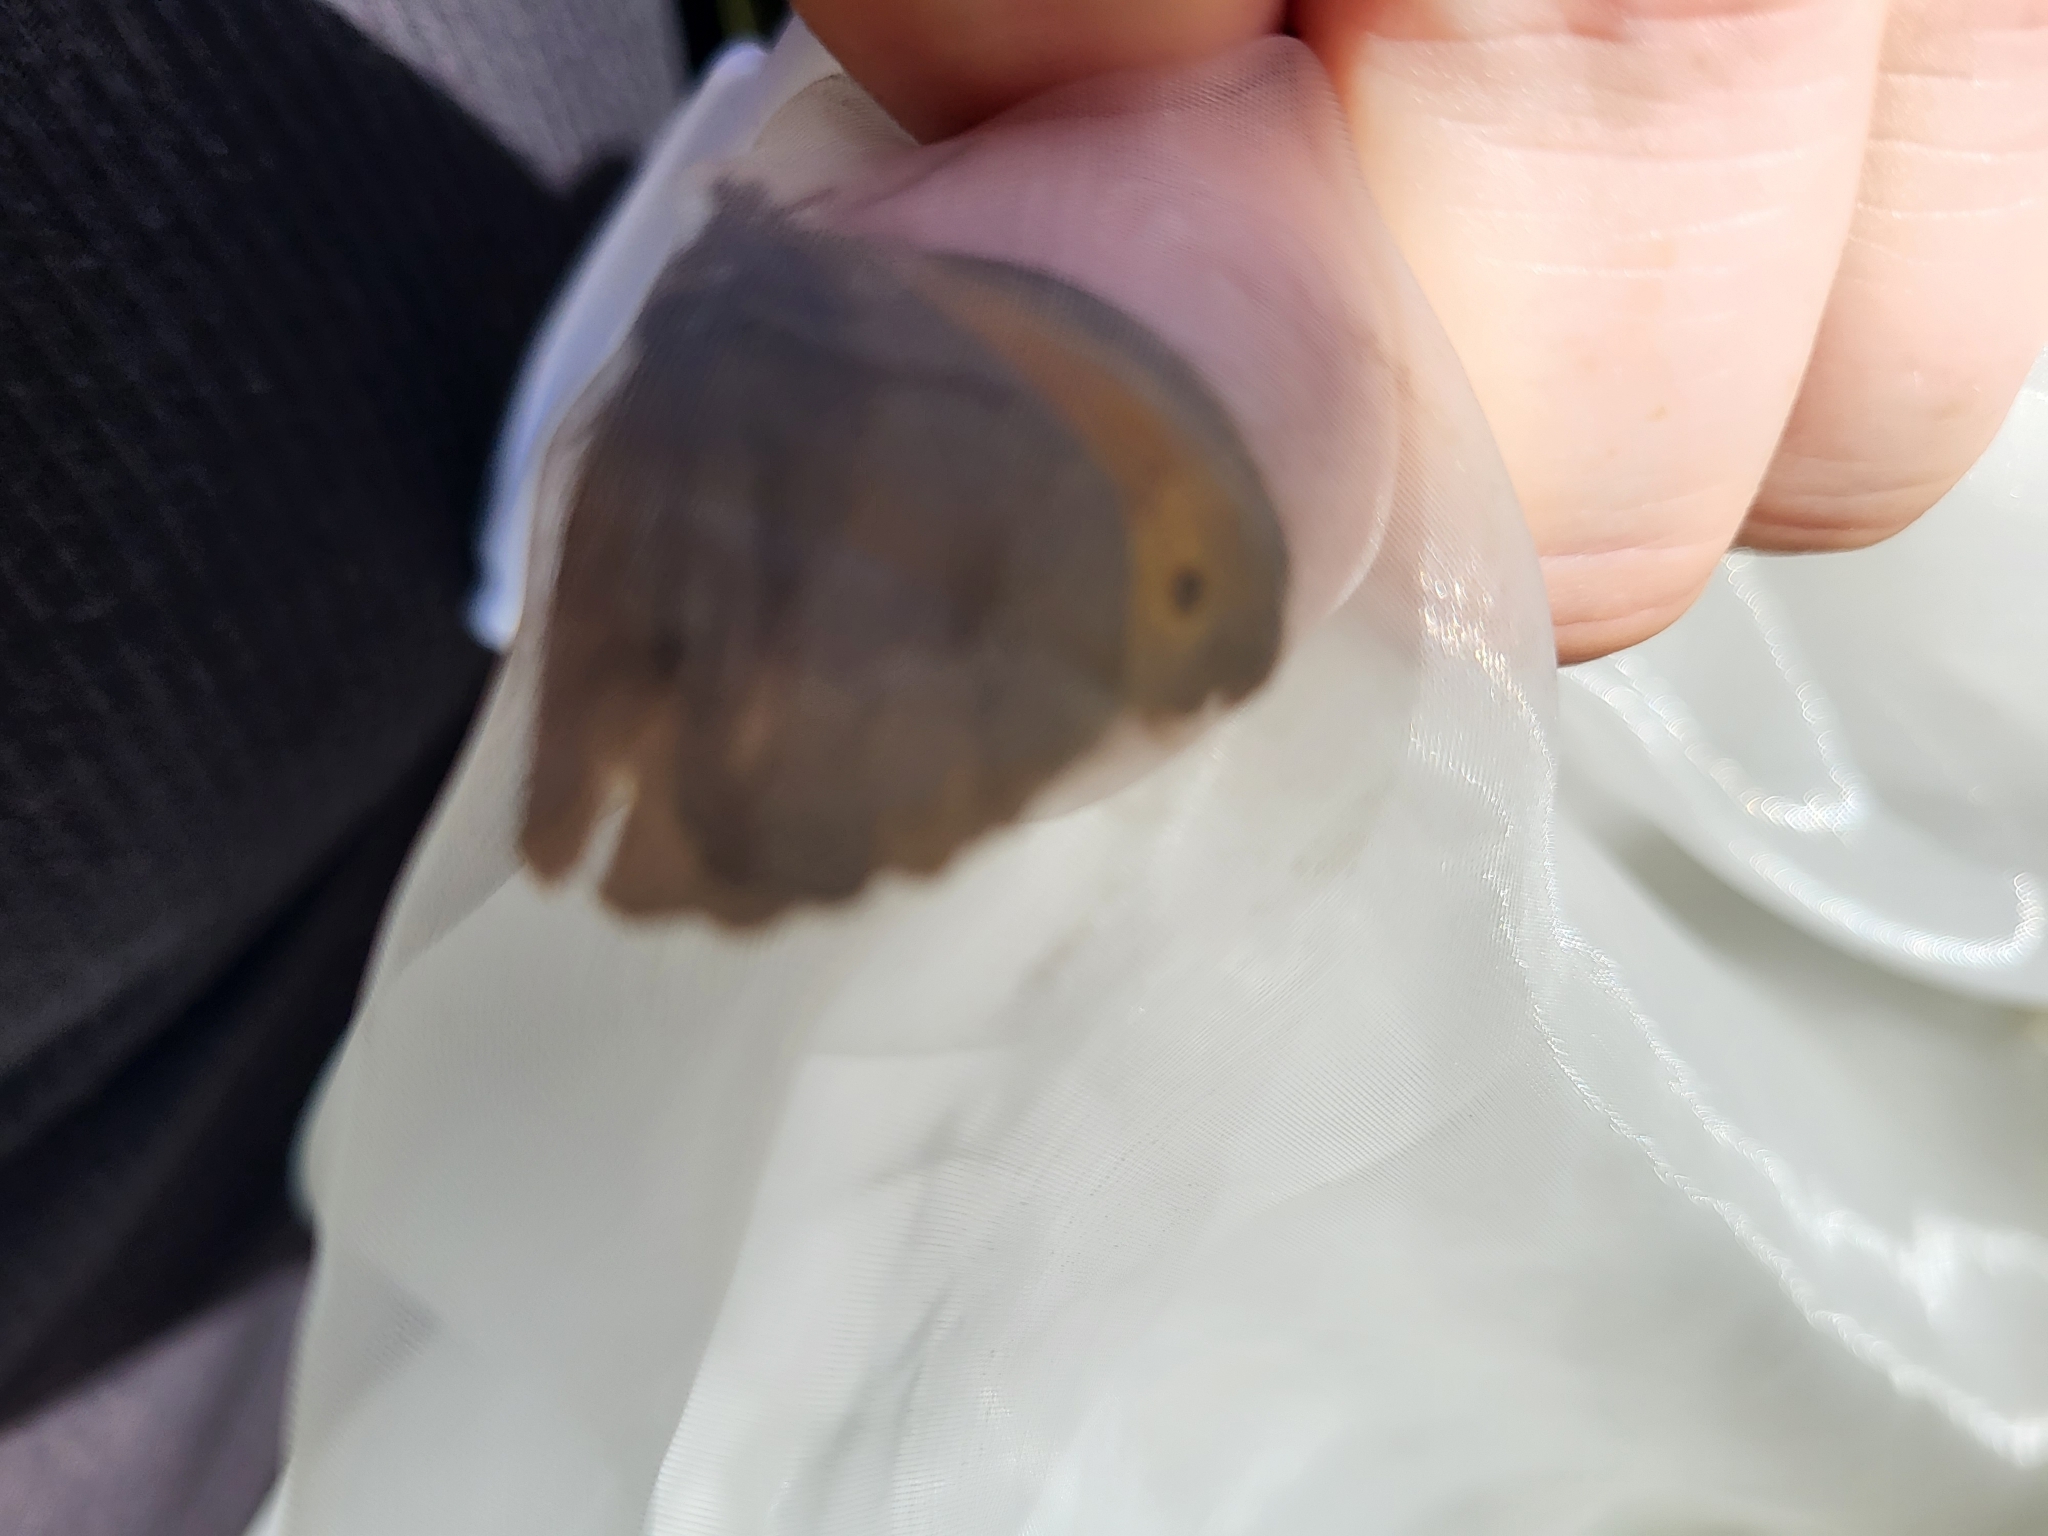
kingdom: Animalia
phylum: Arthropoda
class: Insecta
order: Lepidoptera
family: Nymphalidae
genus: Maniola
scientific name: Maniola jurtina
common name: Meadow brown
